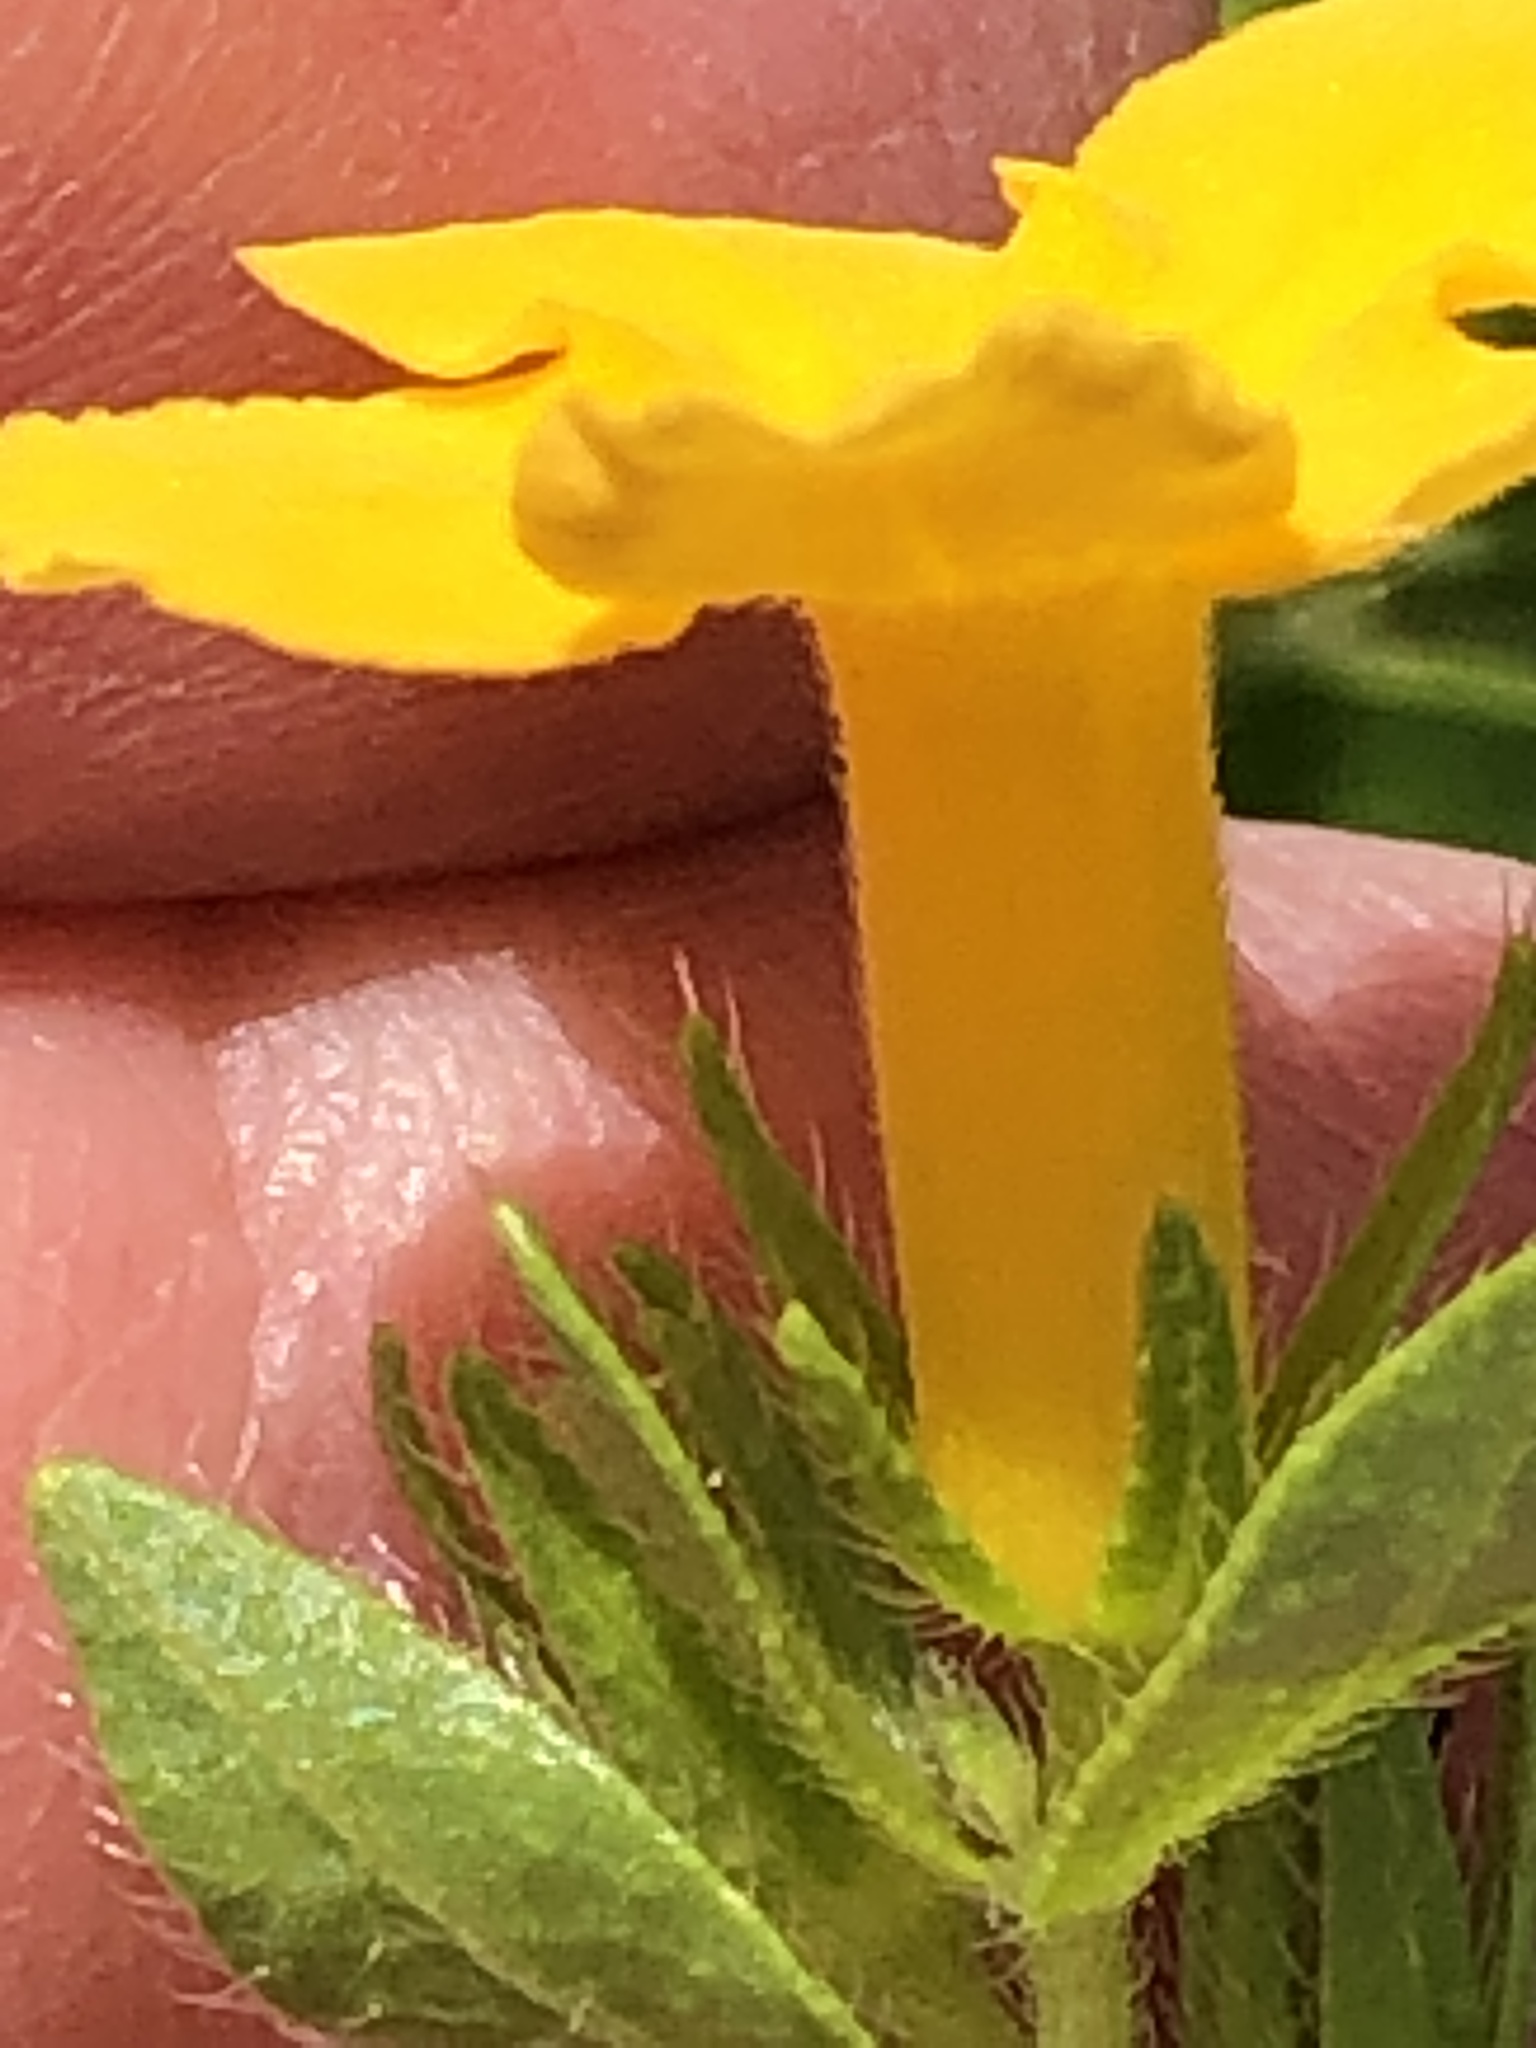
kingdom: Plantae
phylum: Tracheophyta
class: Magnoliopsida
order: Boraginales
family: Boraginaceae
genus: Lithospermum
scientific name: Lithospermum caroliniense
